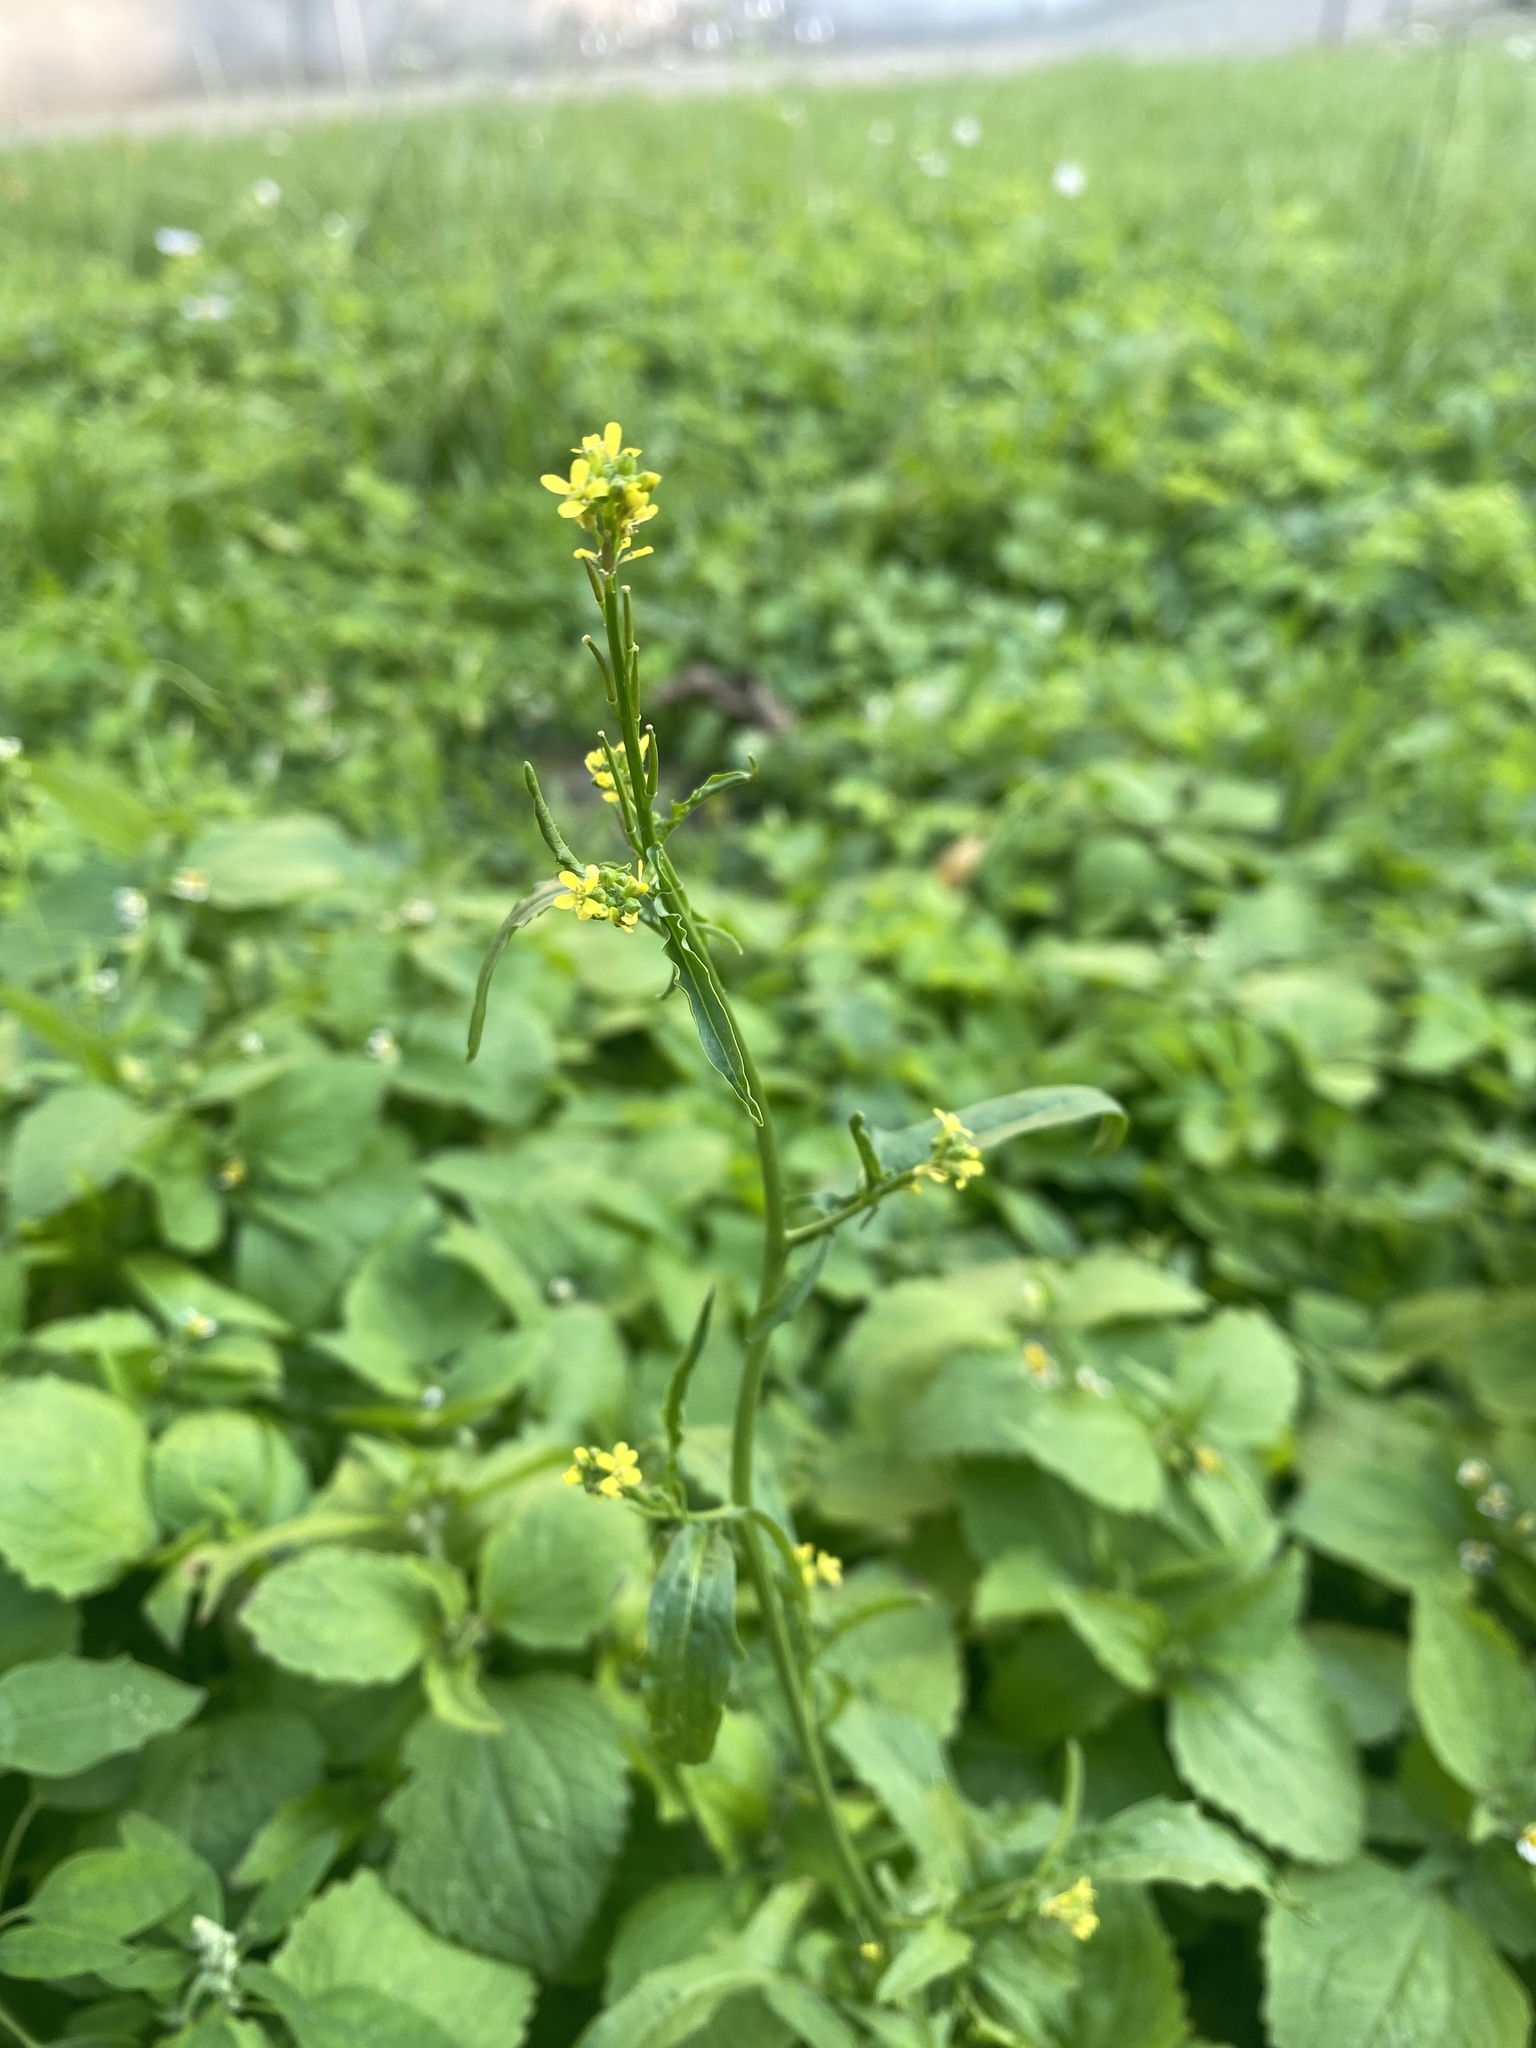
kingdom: Plantae
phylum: Tracheophyta
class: Magnoliopsida
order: Brassicales
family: Brassicaceae
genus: Sisymbrium
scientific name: Sisymbrium officinale
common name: Hedge mustard
